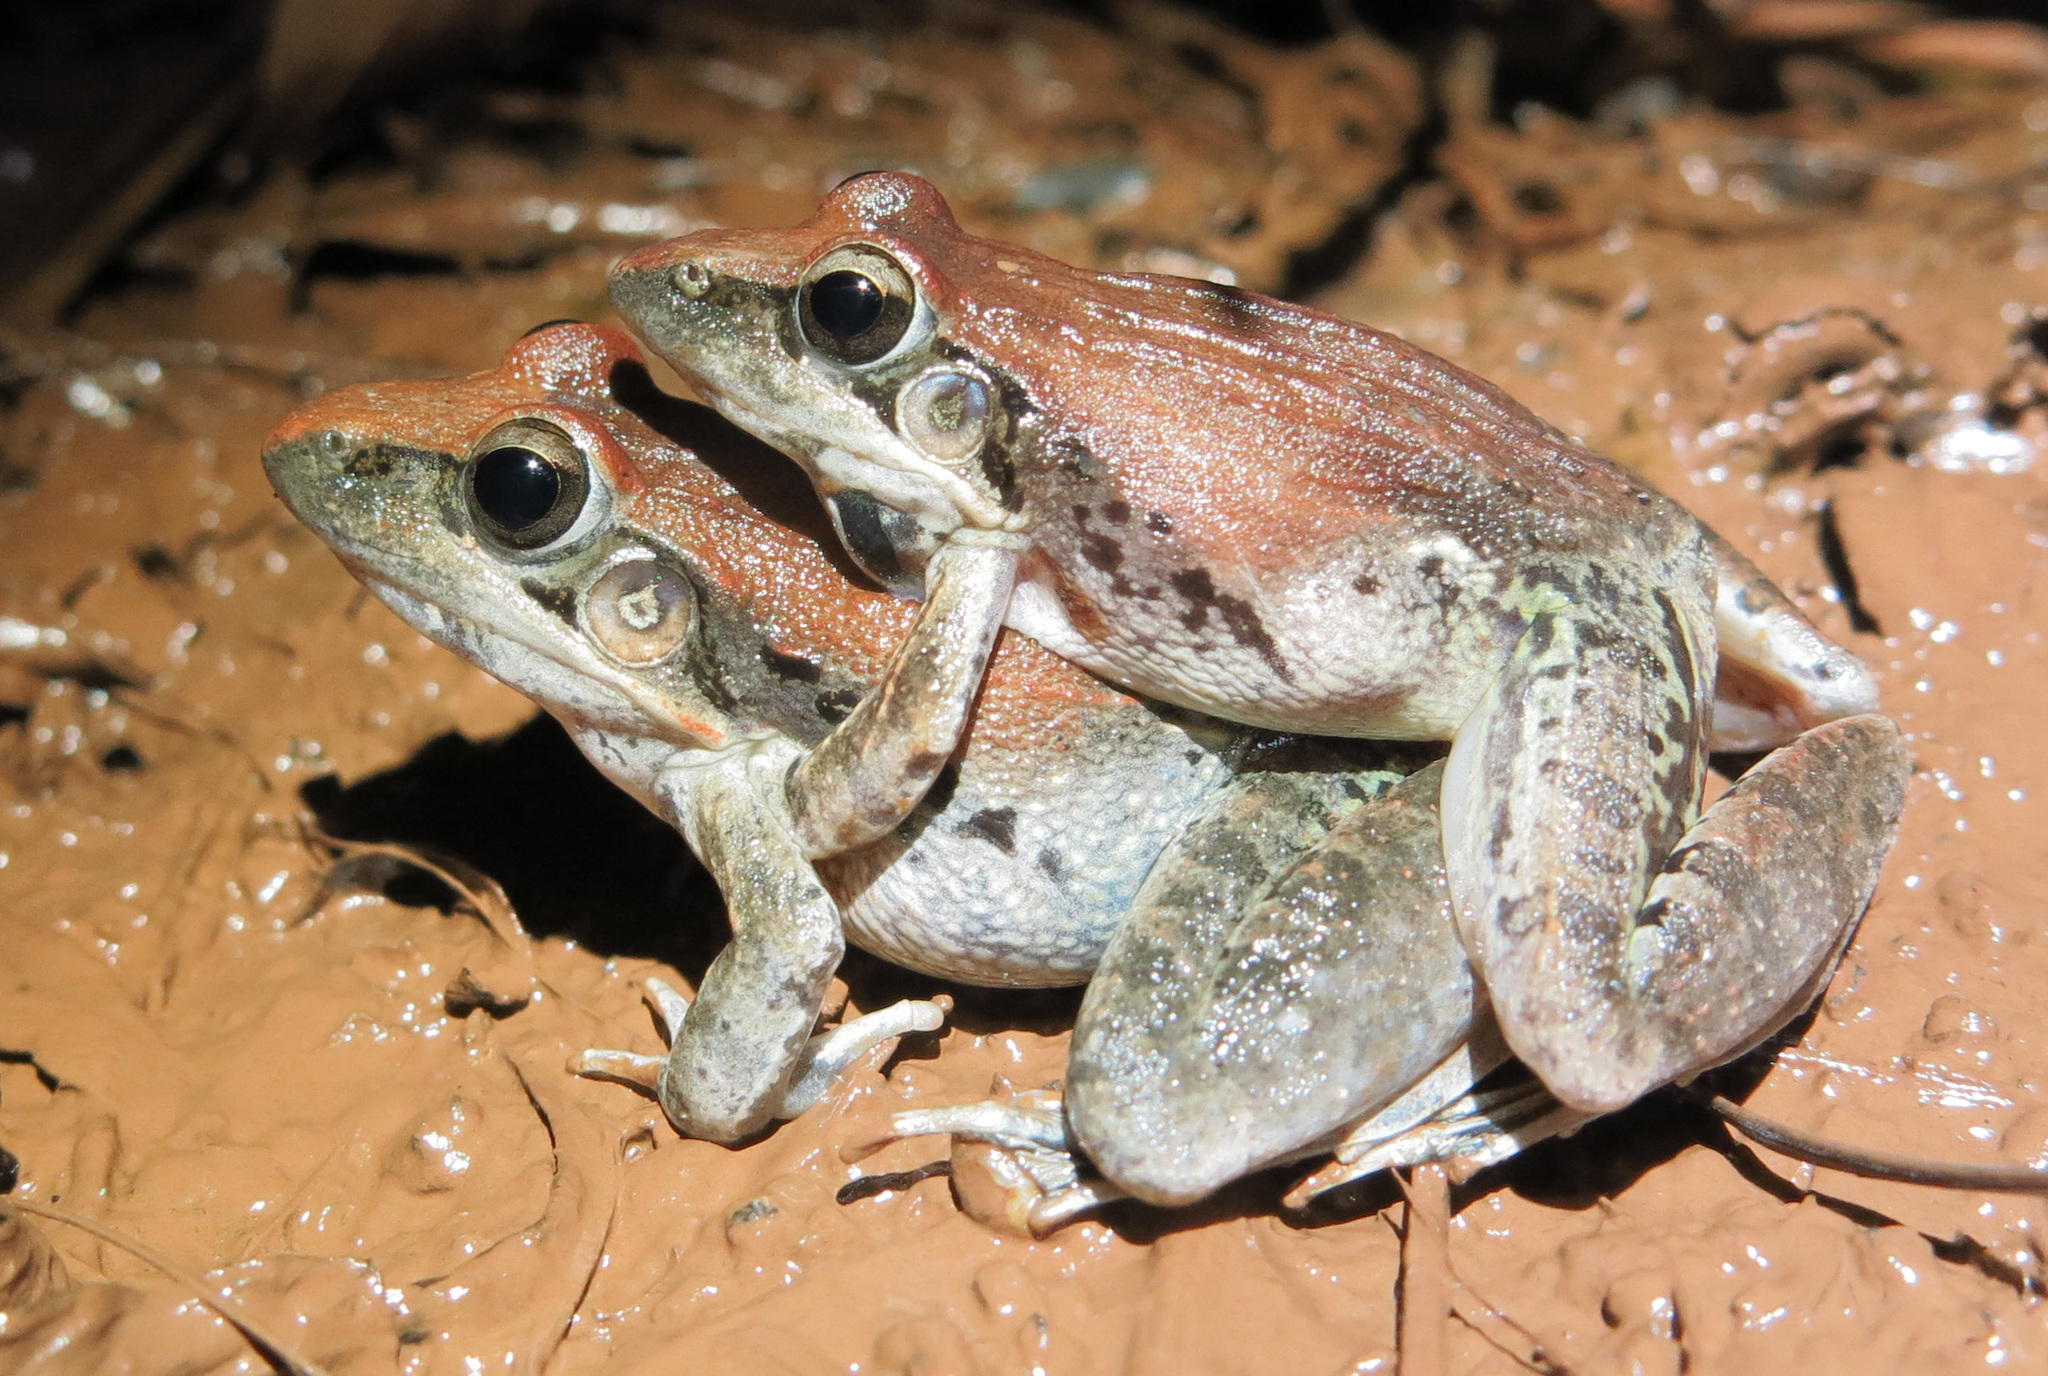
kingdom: Animalia
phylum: Chordata
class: Amphibia
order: Anura
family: Ptychadenidae
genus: Ptychadena
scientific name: Ptychadena anchietae
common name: Anchieta's ridged frog
